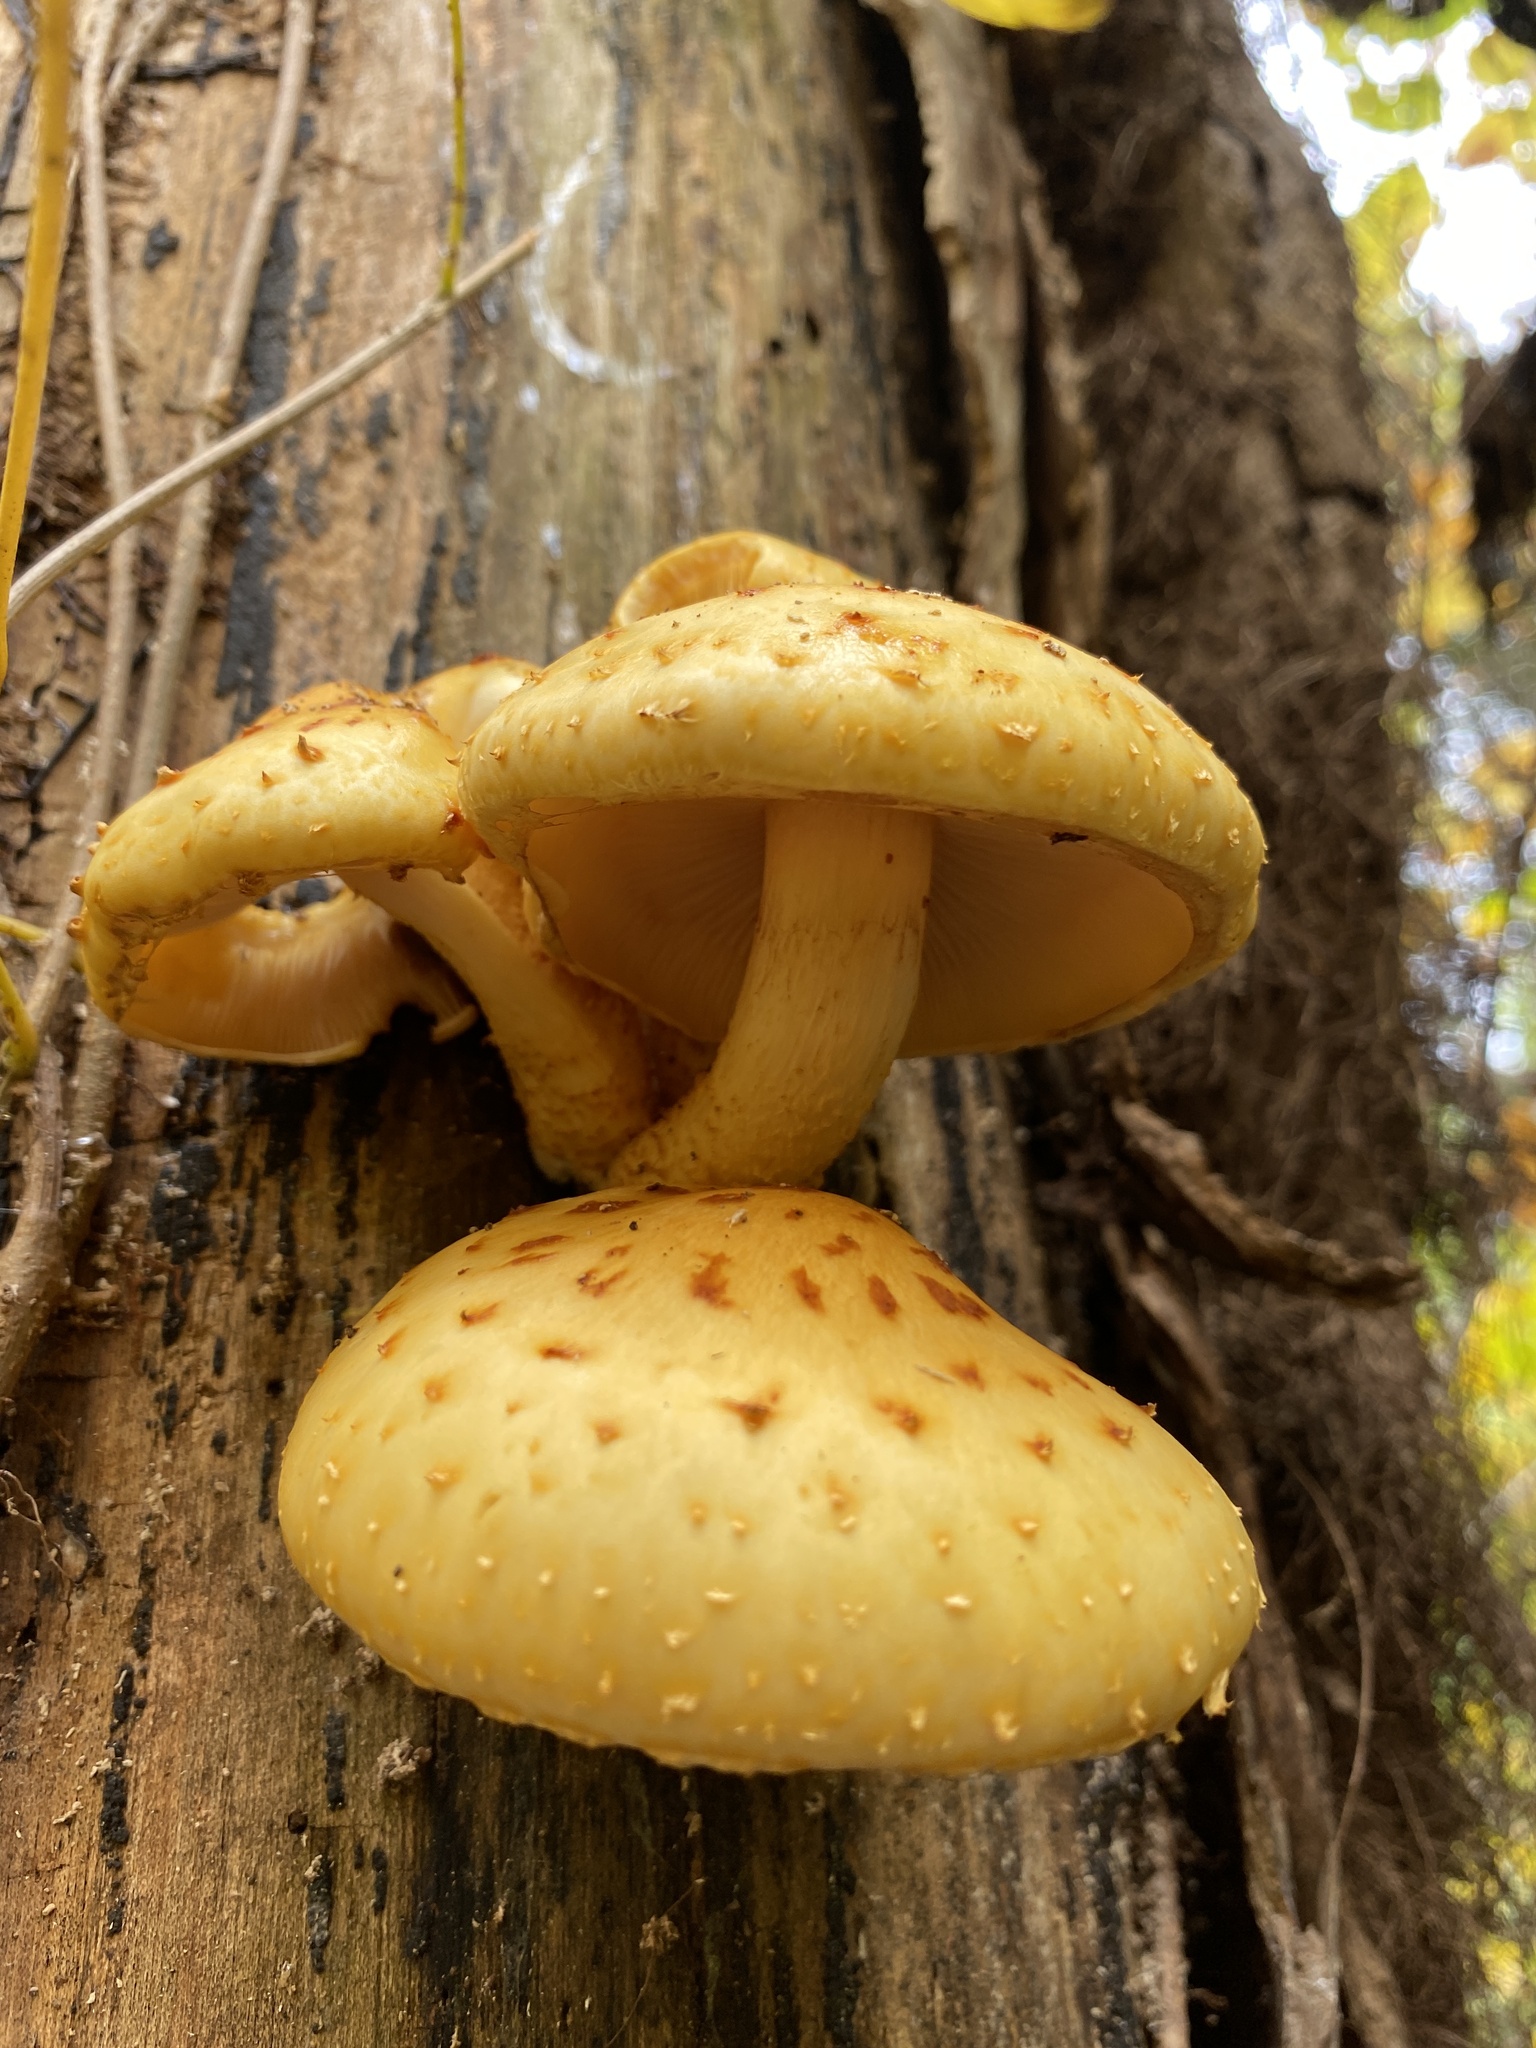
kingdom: Fungi
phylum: Basidiomycota
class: Agaricomycetes
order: Agaricales
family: Strophariaceae
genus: Pholiota
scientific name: Pholiota aurivella
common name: Golden scalycap
